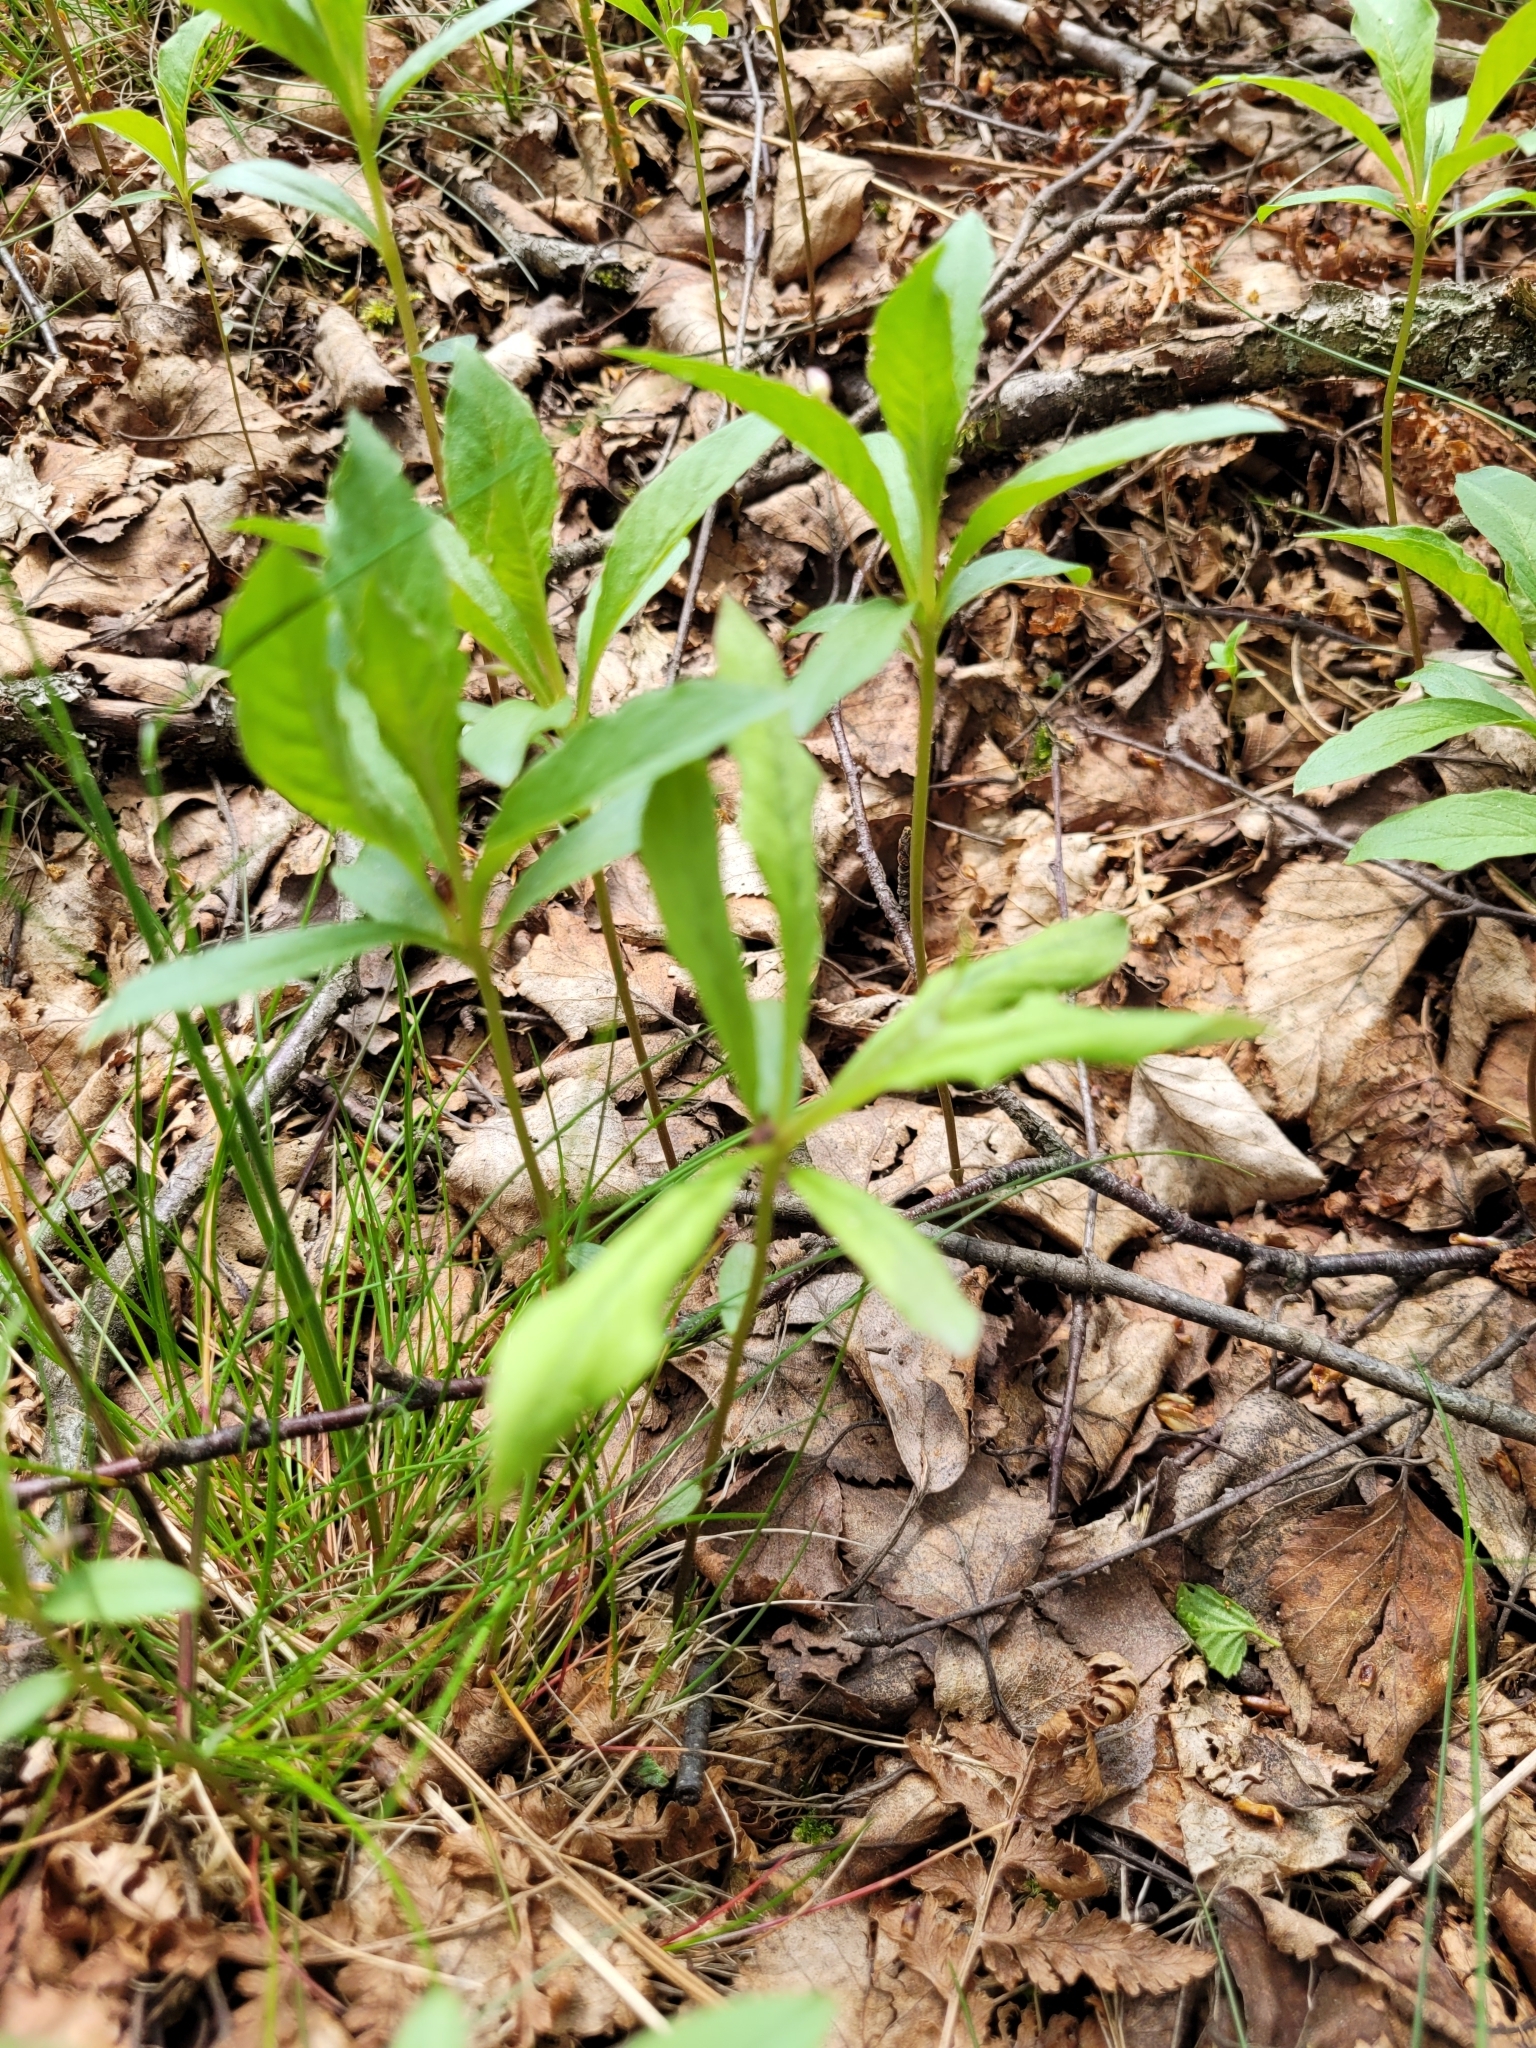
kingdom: Plantae
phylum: Tracheophyta
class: Magnoliopsida
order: Ericales
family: Primulaceae
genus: Lysimachia
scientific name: Lysimachia europaea
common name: Arctic starflower
